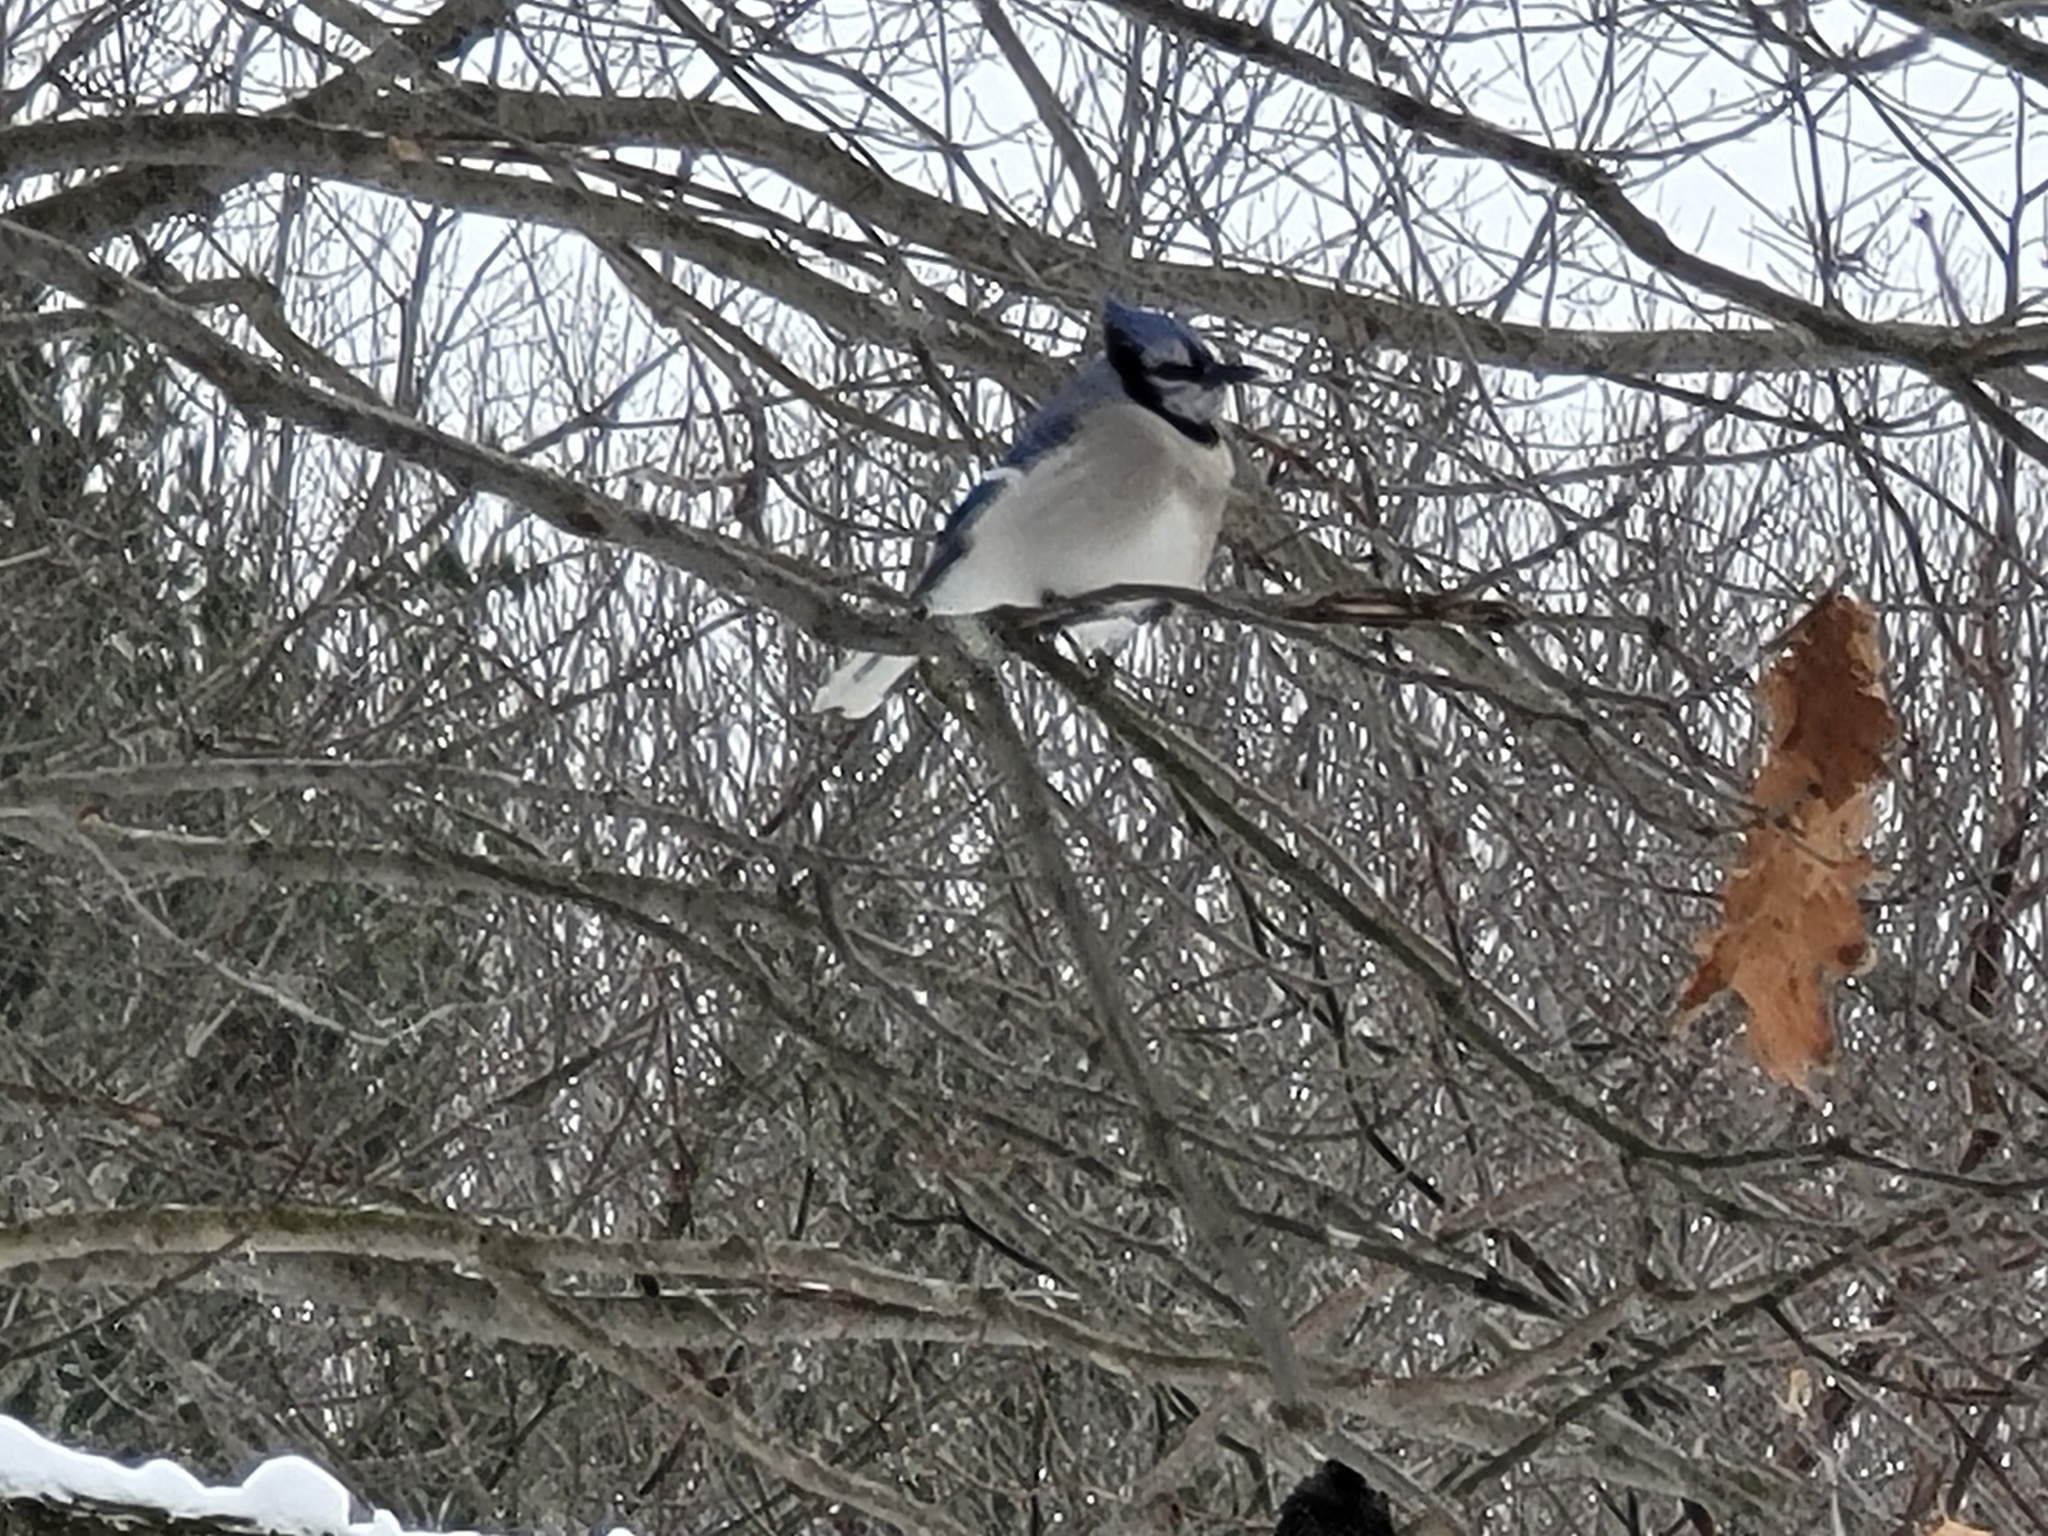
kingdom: Animalia
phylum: Chordata
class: Aves
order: Passeriformes
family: Corvidae
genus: Cyanocitta
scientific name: Cyanocitta cristata
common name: Blue jay
